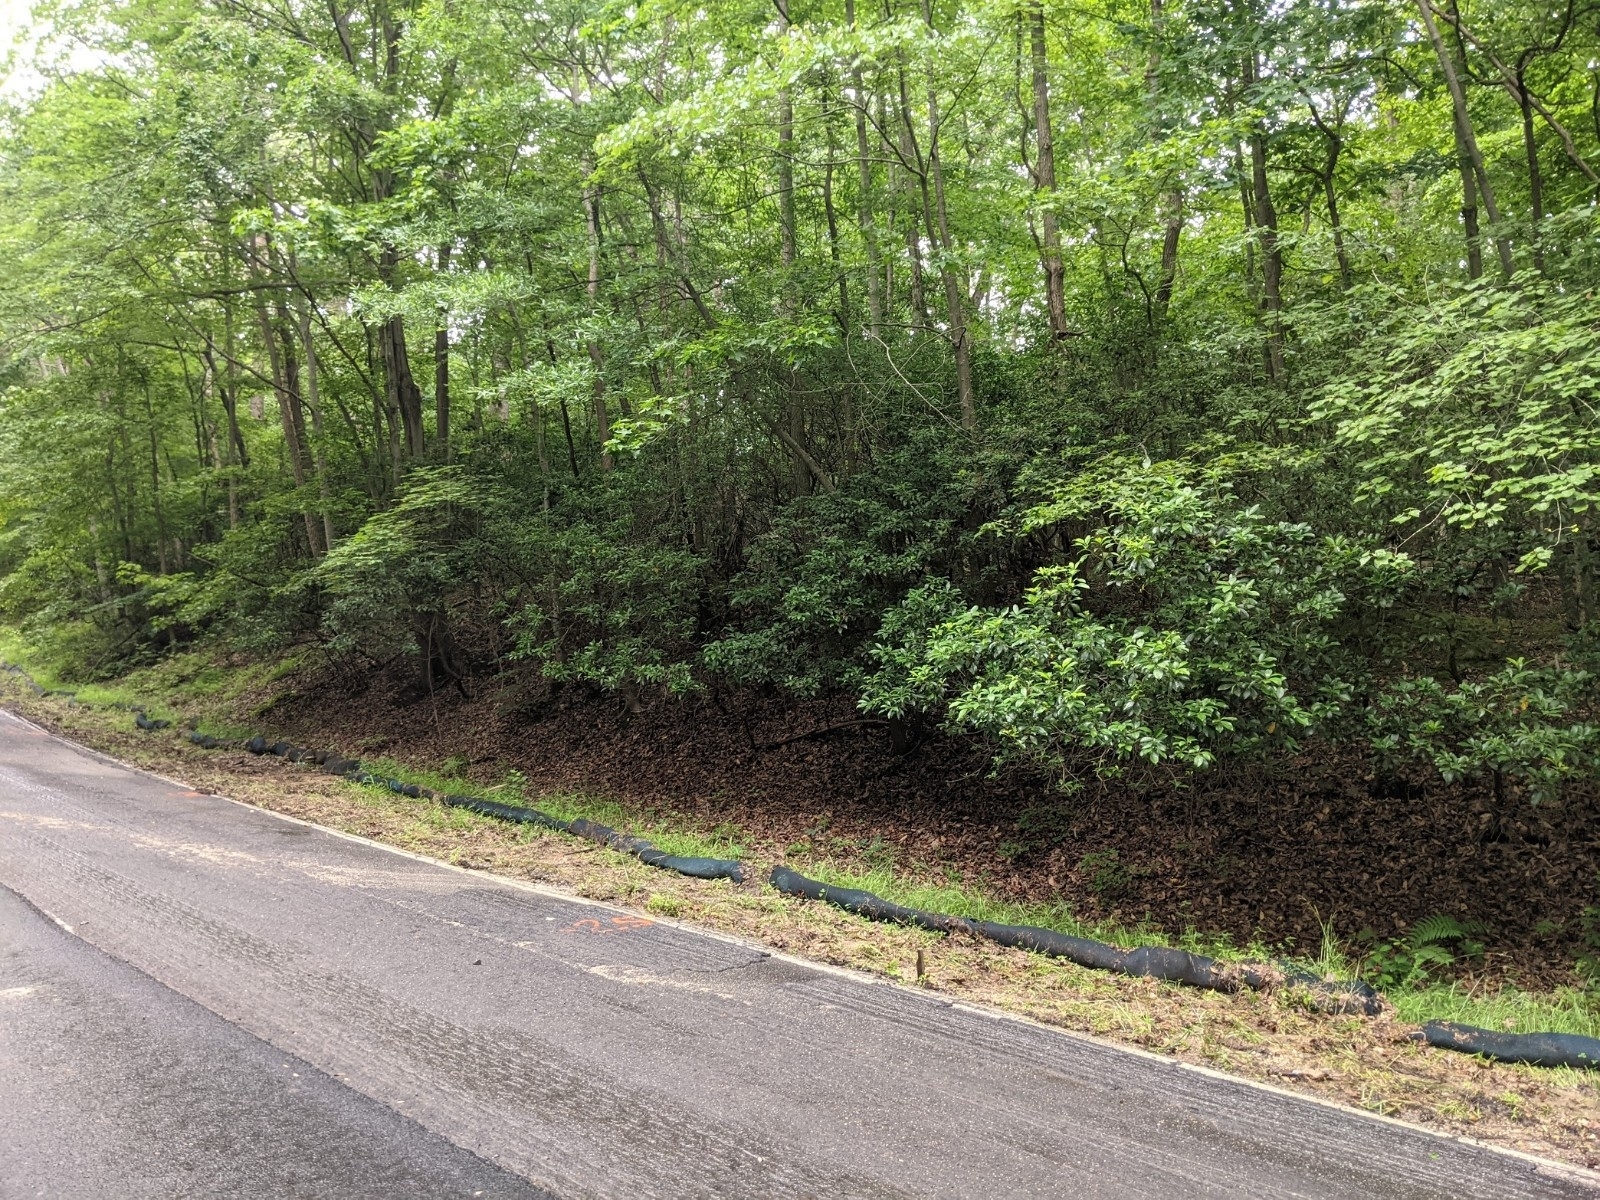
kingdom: Plantae
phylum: Tracheophyta
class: Magnoliopsida
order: Ericales
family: Ericaceae
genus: Kalmia
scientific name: Kalmia latifolia
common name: Mountain-laurel
